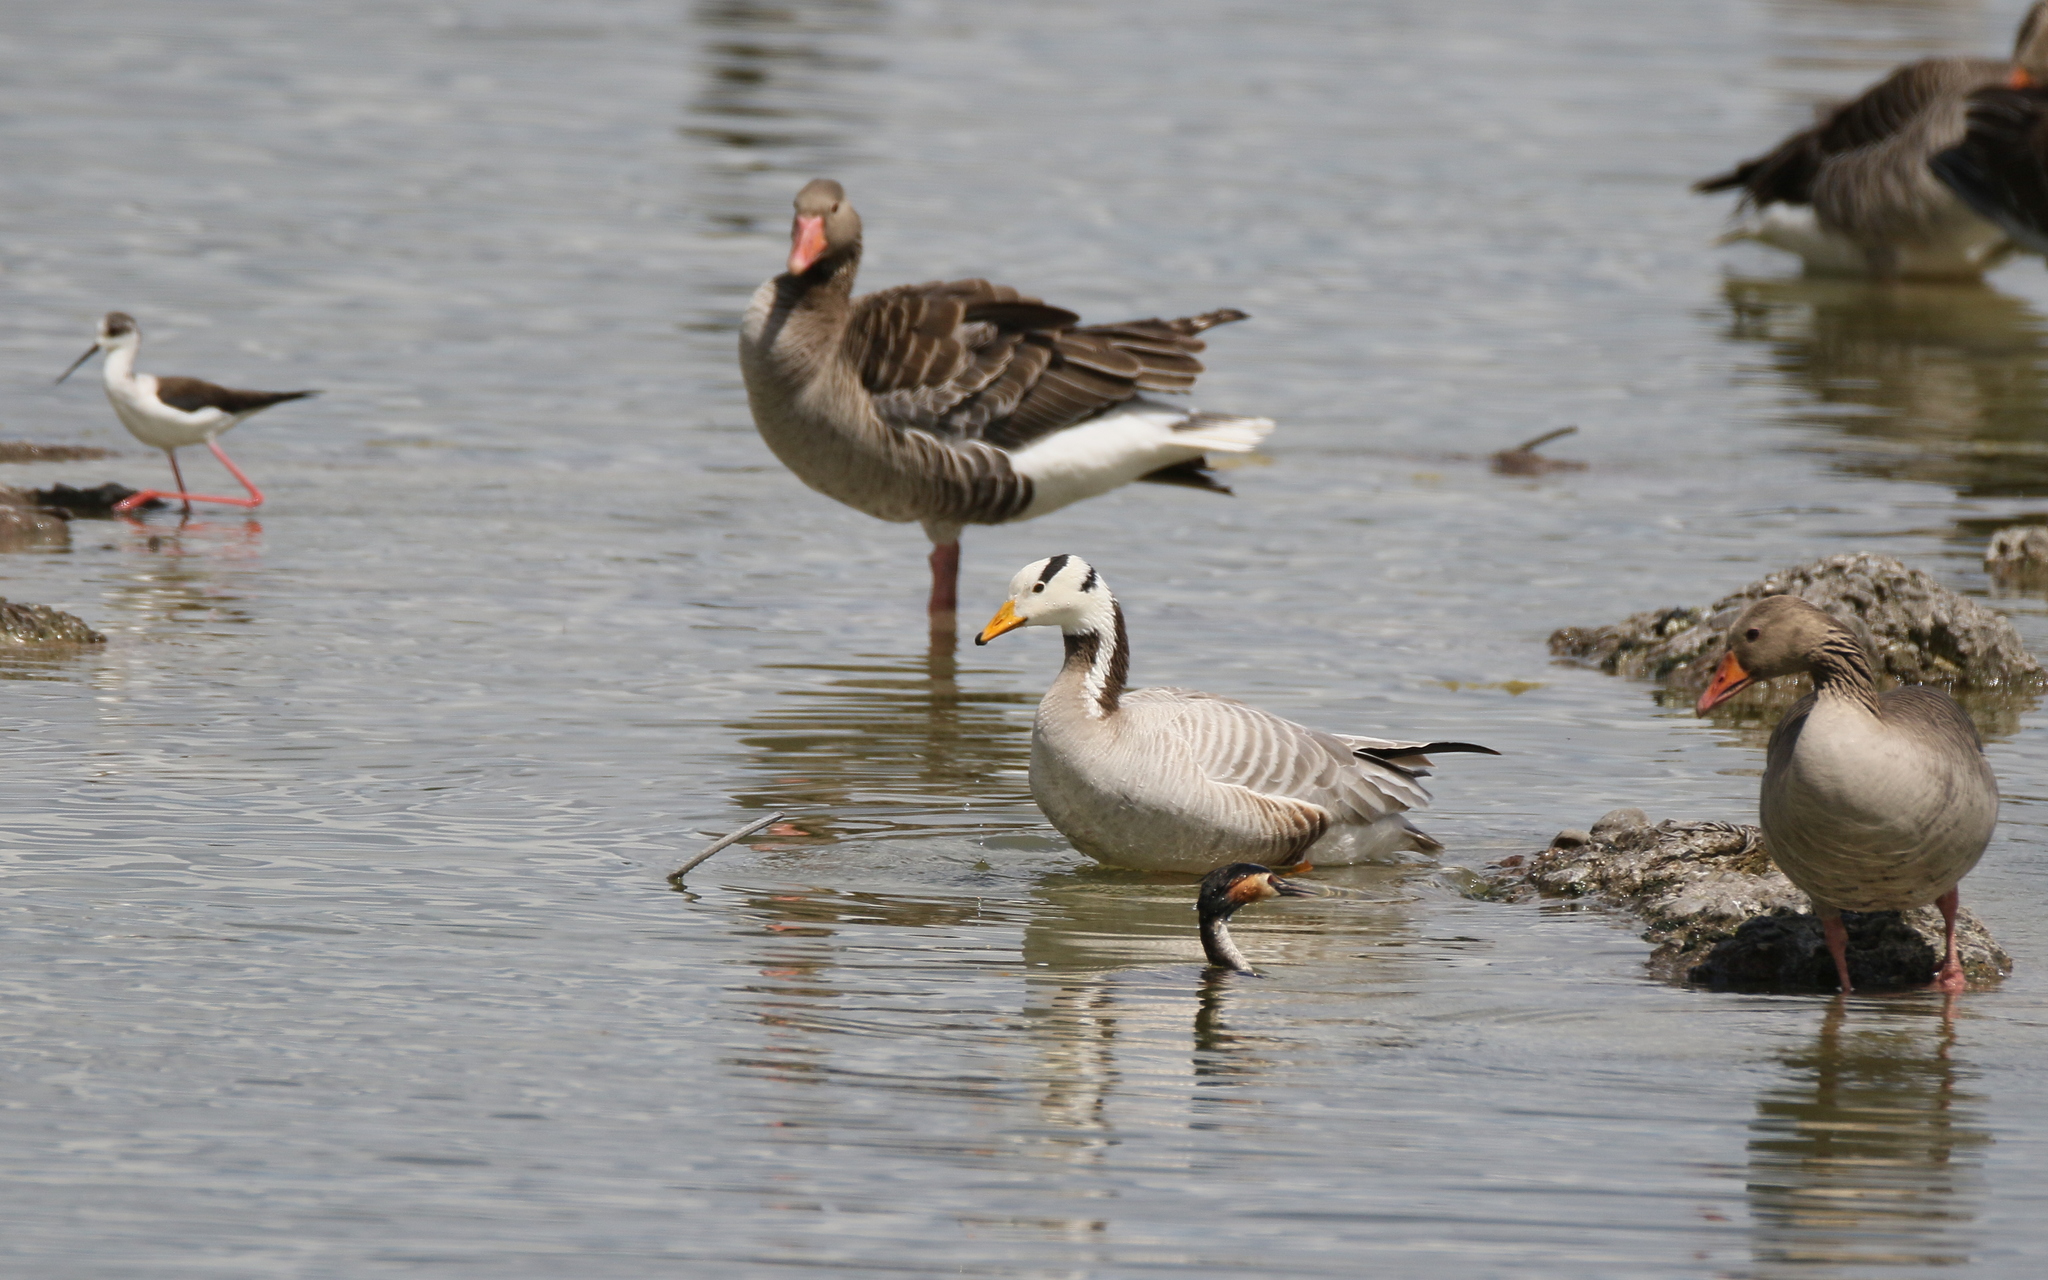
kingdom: Animalia
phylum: Chordata
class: Aves
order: Anseriformes
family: Anatidae
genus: Anser
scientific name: Anser indicus
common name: Bar-headed goose
